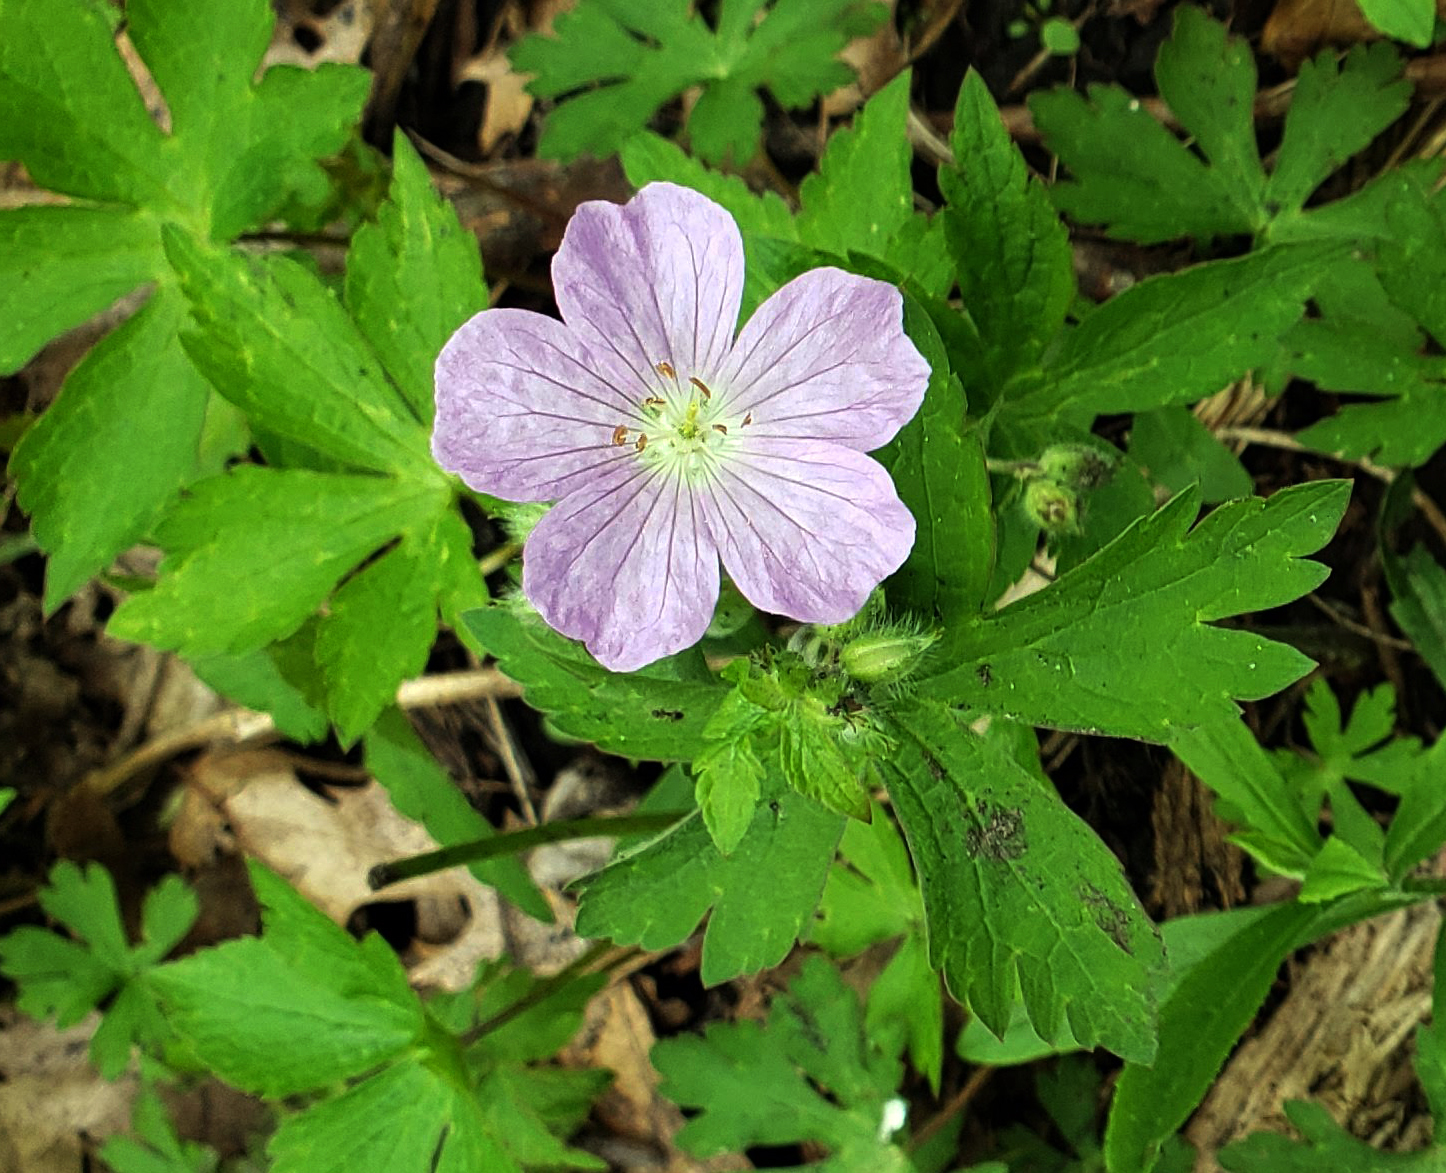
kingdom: Plantae
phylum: Tracheophyta
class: Magnoliopsida
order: Geraniales
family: Geraniaceae
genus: Geranium
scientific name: Geranium maculatum
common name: Spotted geranium
